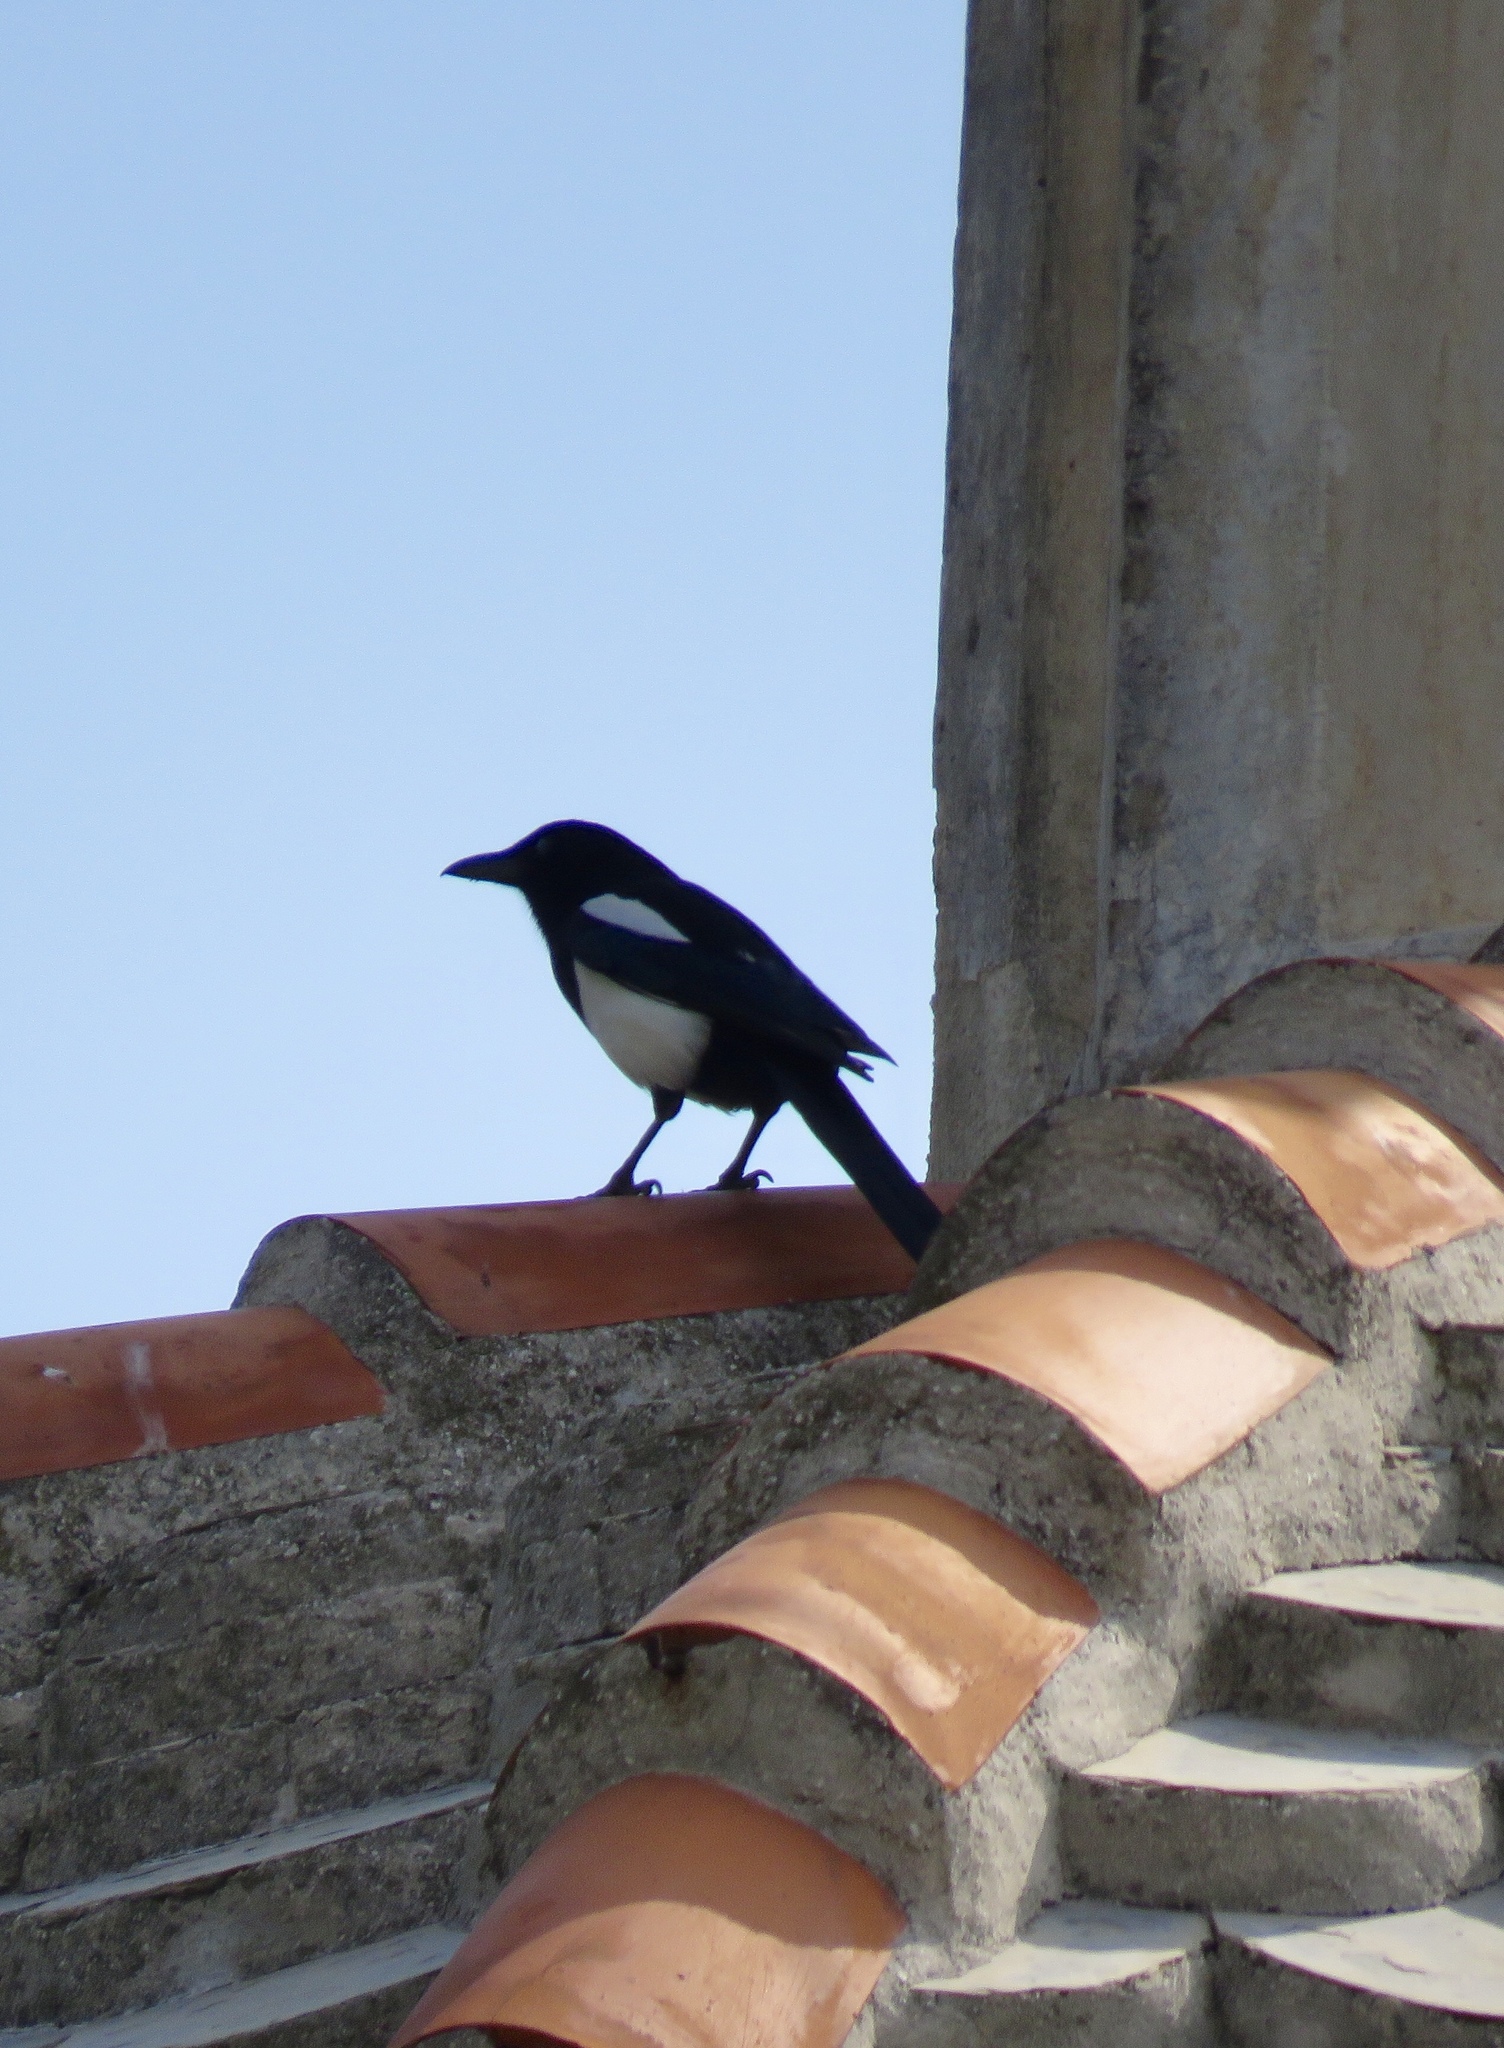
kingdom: Animalia
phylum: Chordata
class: Aves
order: Passeriformes
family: Corvidae
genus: Pica
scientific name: Pica pica
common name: Eurasian magpie
